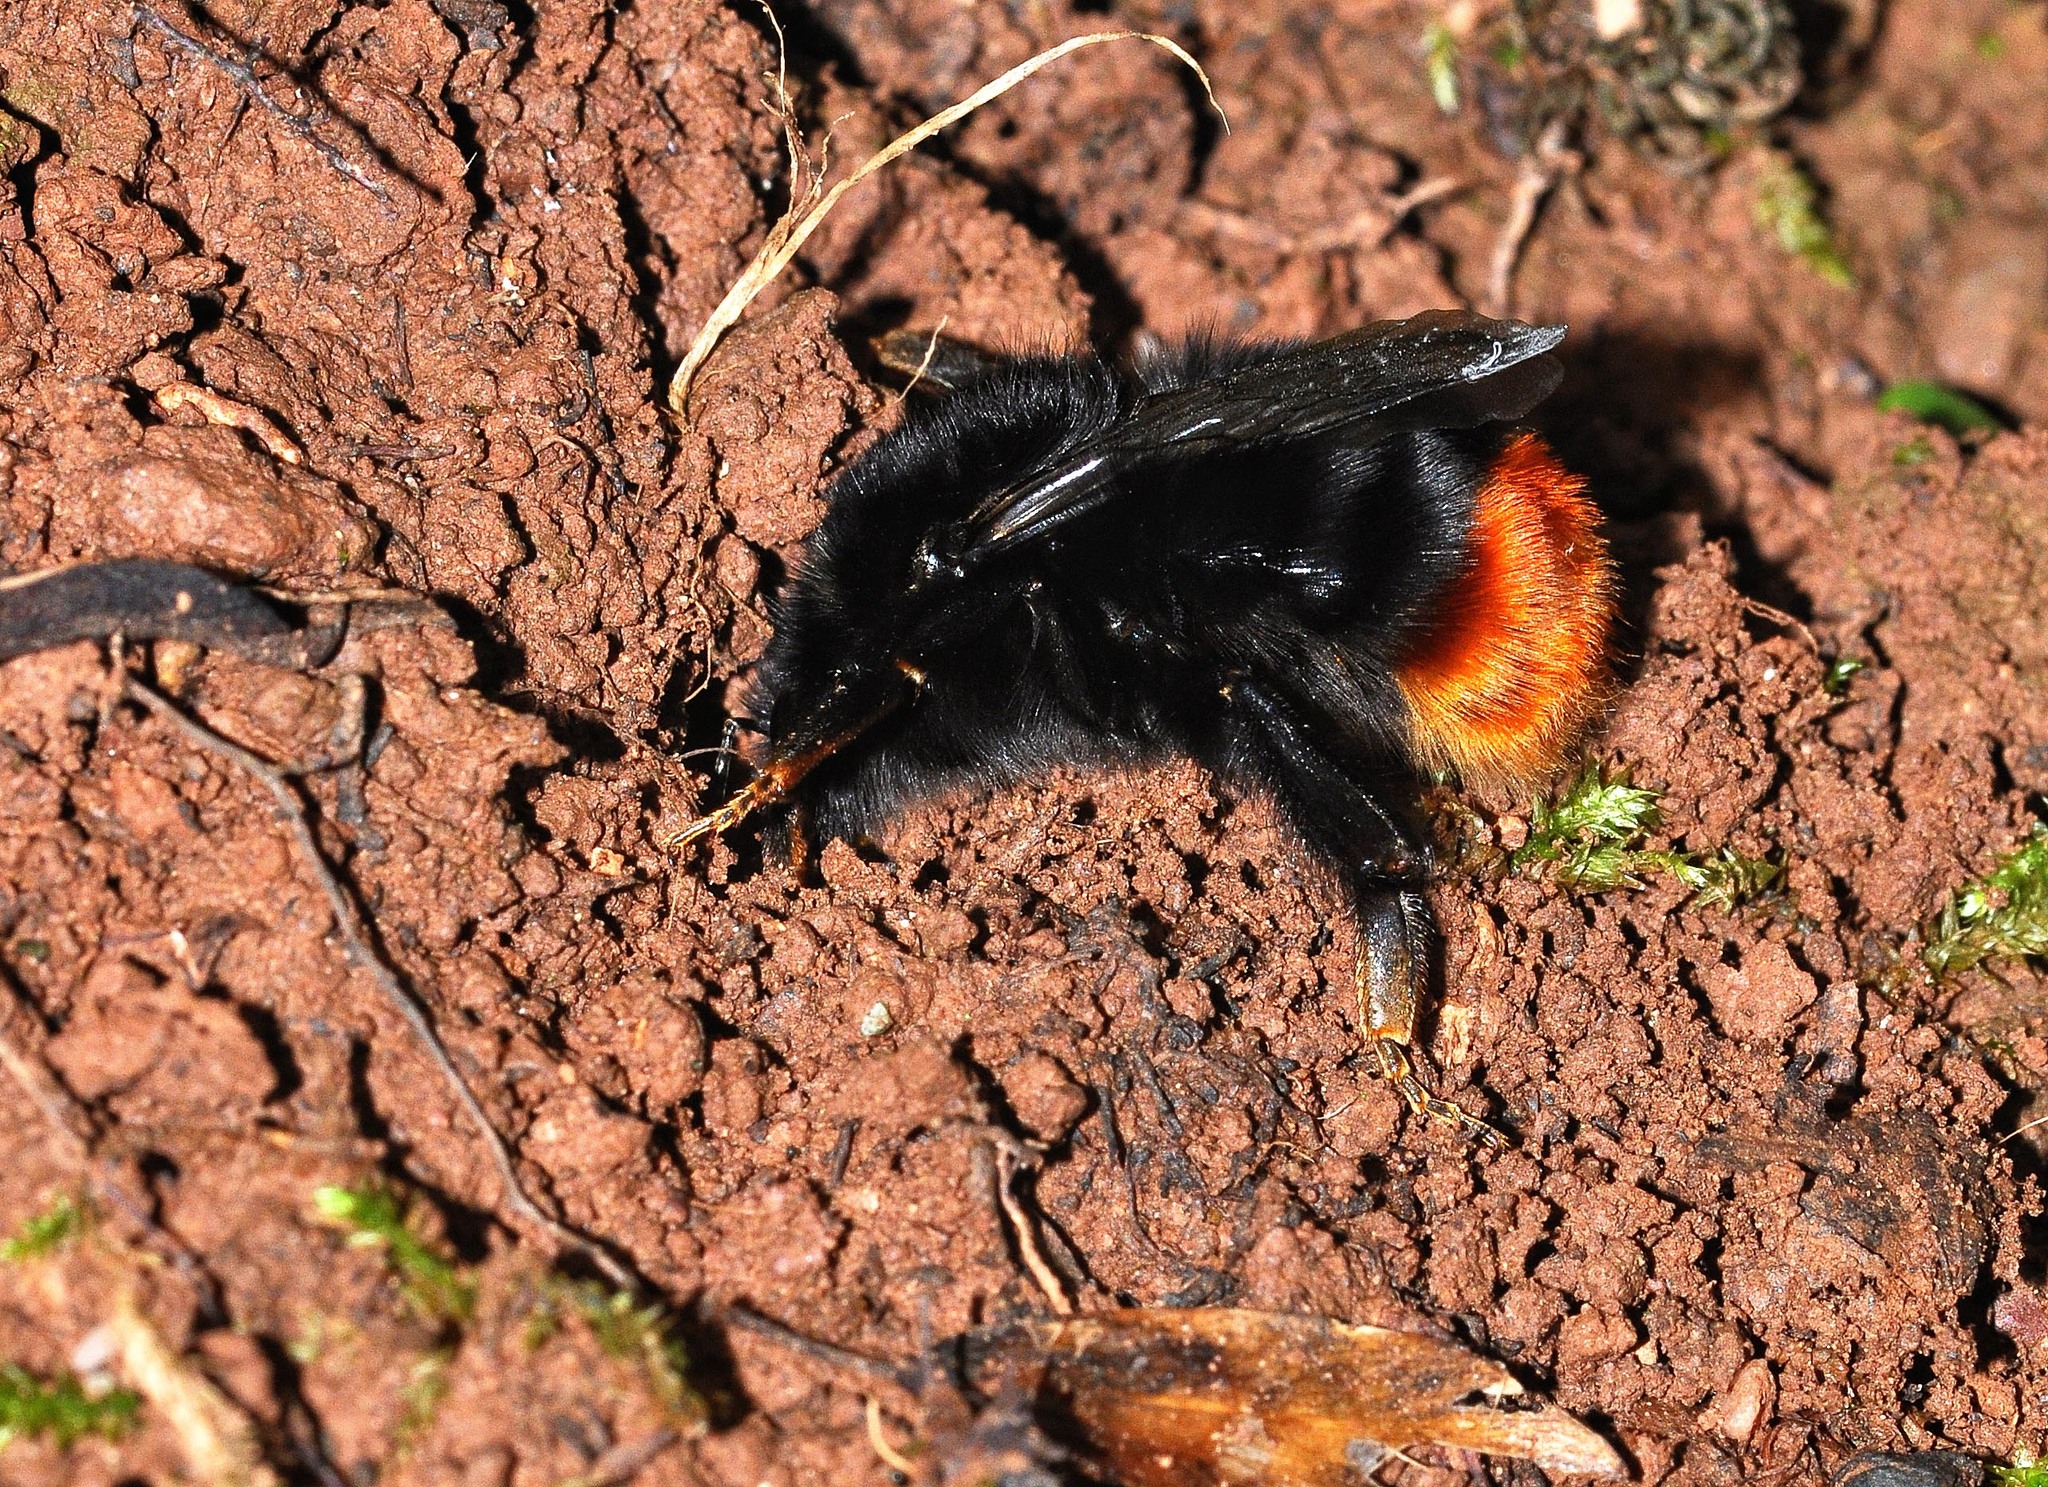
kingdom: Animalia
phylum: Arthropoda
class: Insecta
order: Hymenoptera
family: Apidae
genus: Bombus
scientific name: Bombus lapidarius
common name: Large red-tailed humble-bee
